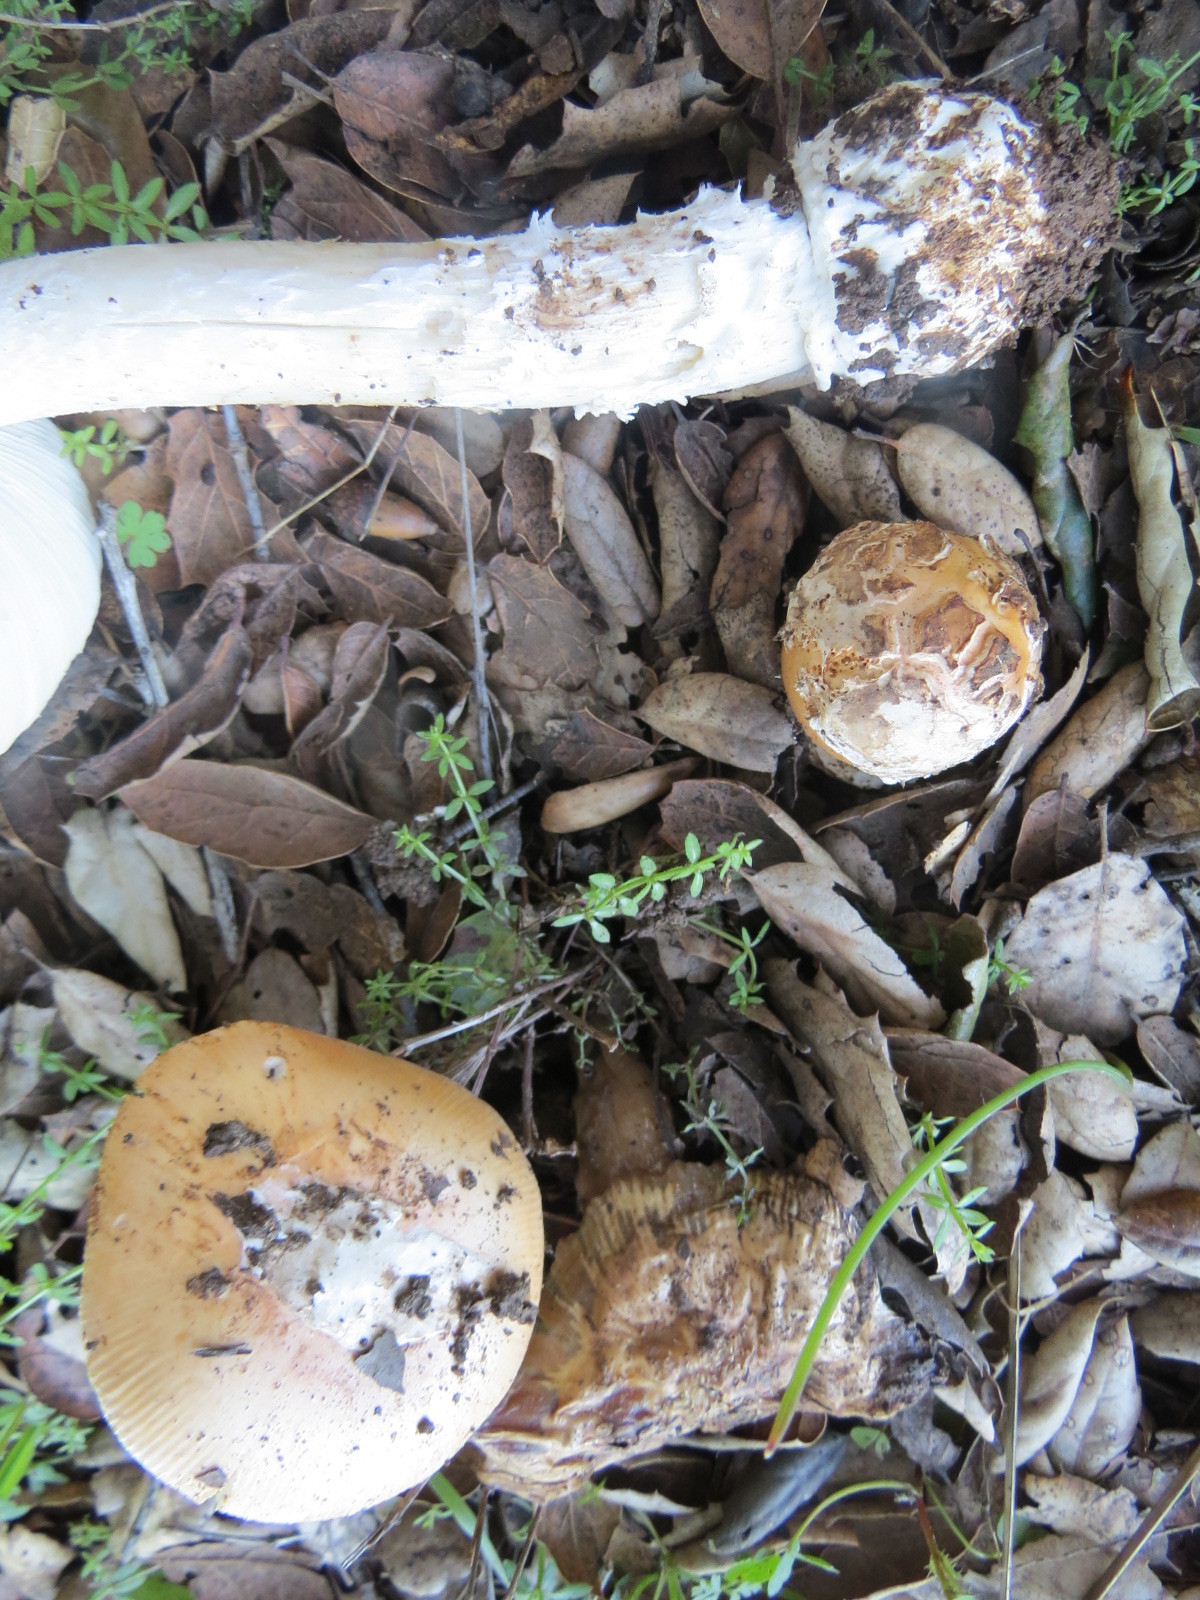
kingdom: Fungi
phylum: Basidiomycota
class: Agaricomycetes
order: Agaricales
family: Amanitaceae
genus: Amanita
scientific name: Amanita velosa
